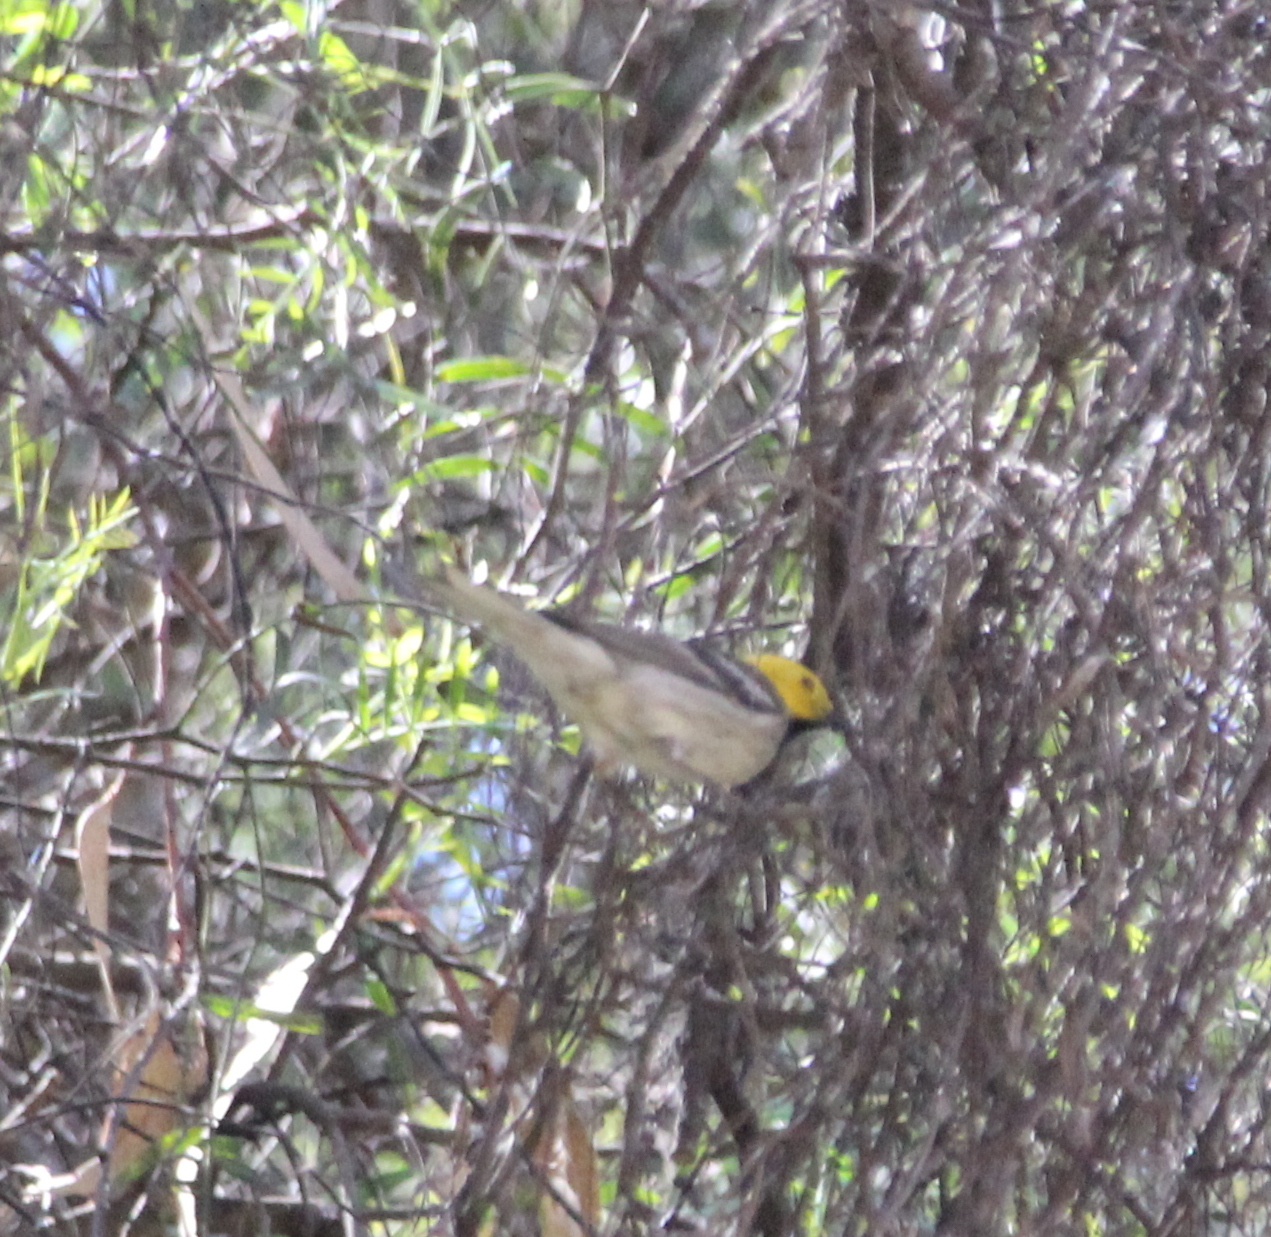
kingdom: Animalia
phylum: Chordata
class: Aves
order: Passeriformes
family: Parulidae
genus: Setophaga
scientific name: Setophaga occidentalis
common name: Hermit warbler
